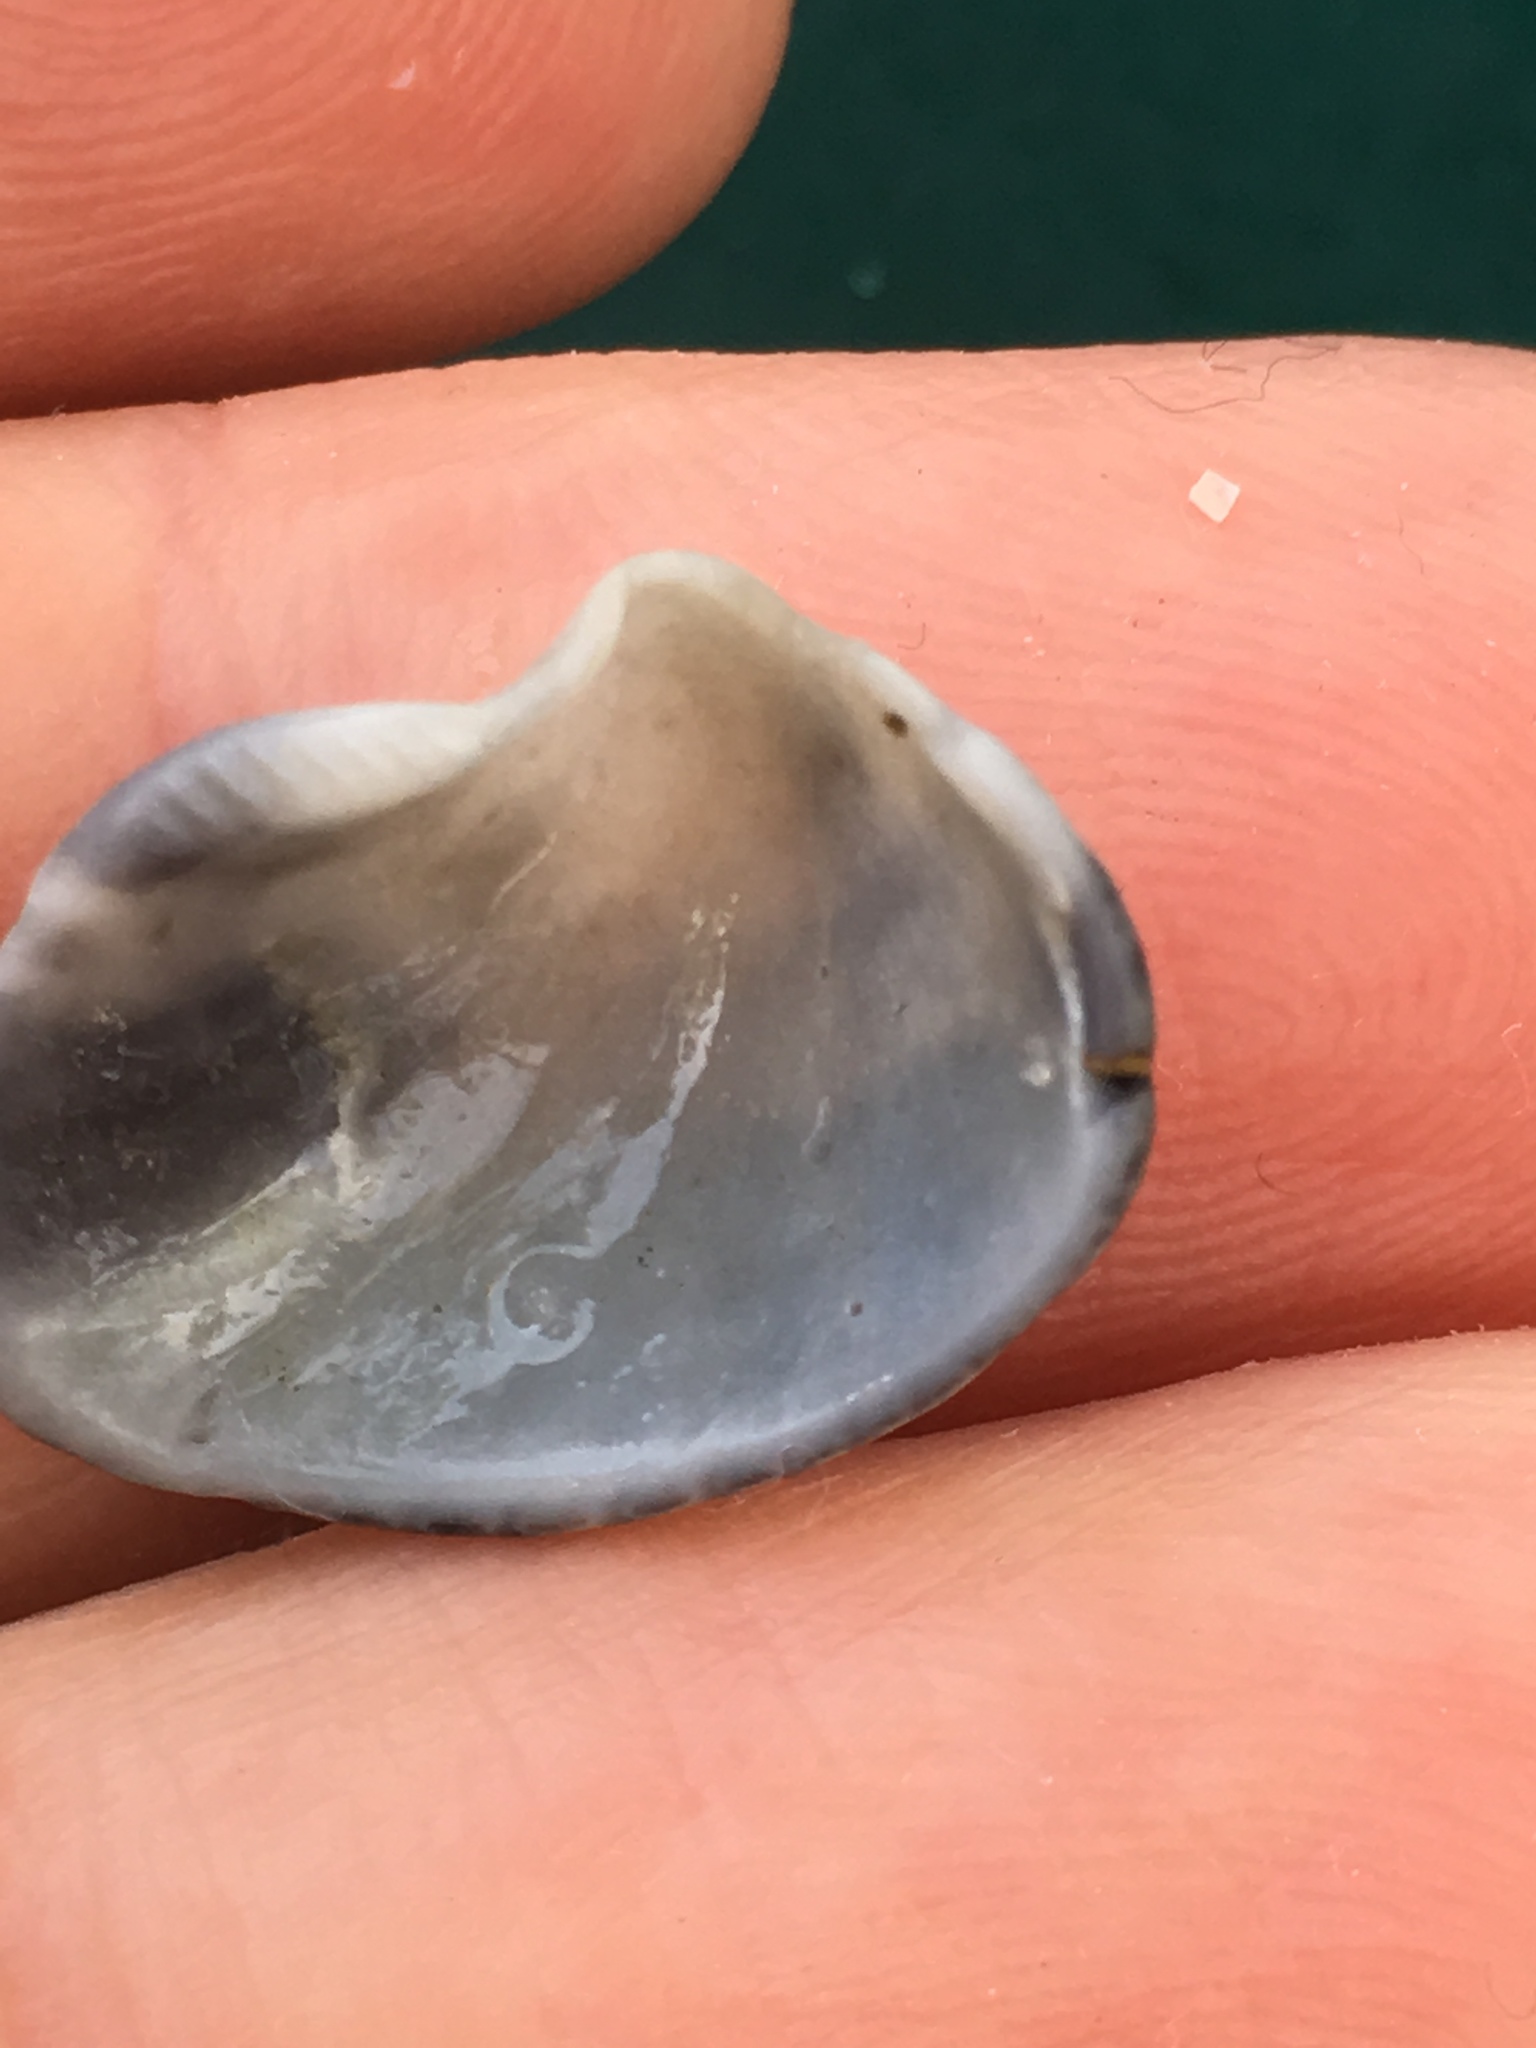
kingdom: Animalia
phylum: Mollusca
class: Bivalvia
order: Arcida
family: Noetiidae
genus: Noetia
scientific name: Noetia ponderosa
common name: Ponderous ark
